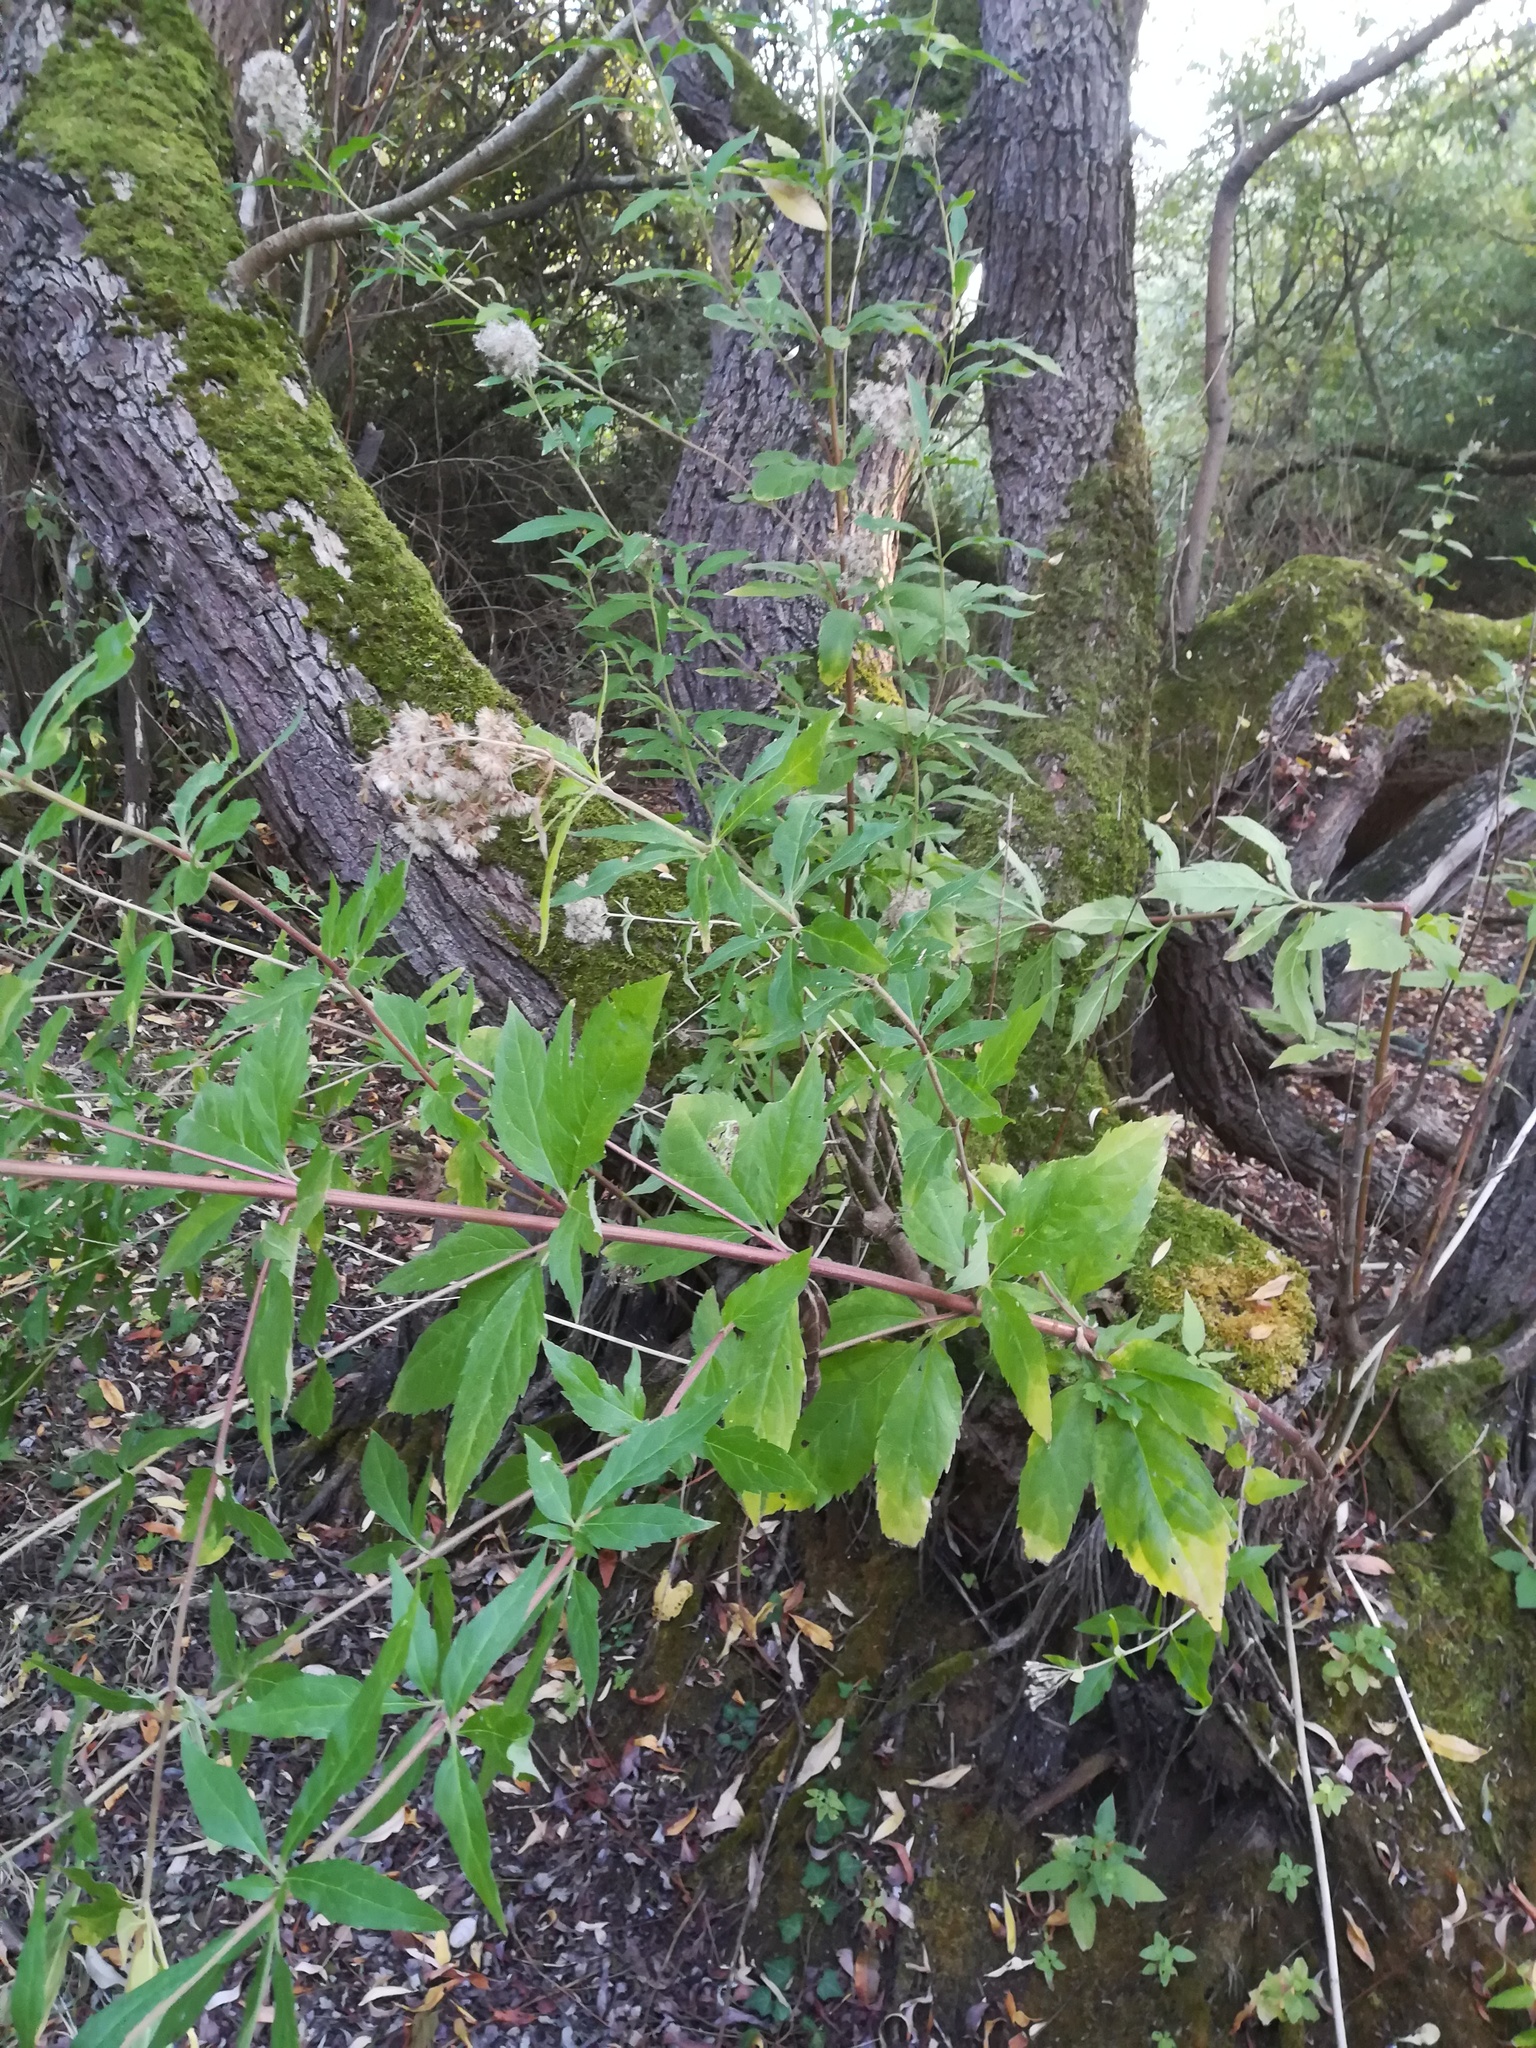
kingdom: Plantae
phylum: Tracheophyta
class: Magnoliopsida
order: Asterales
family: Asteraceae
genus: Eupatorium
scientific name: Eupatorium cannabinum
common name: Hemp-agrimony
